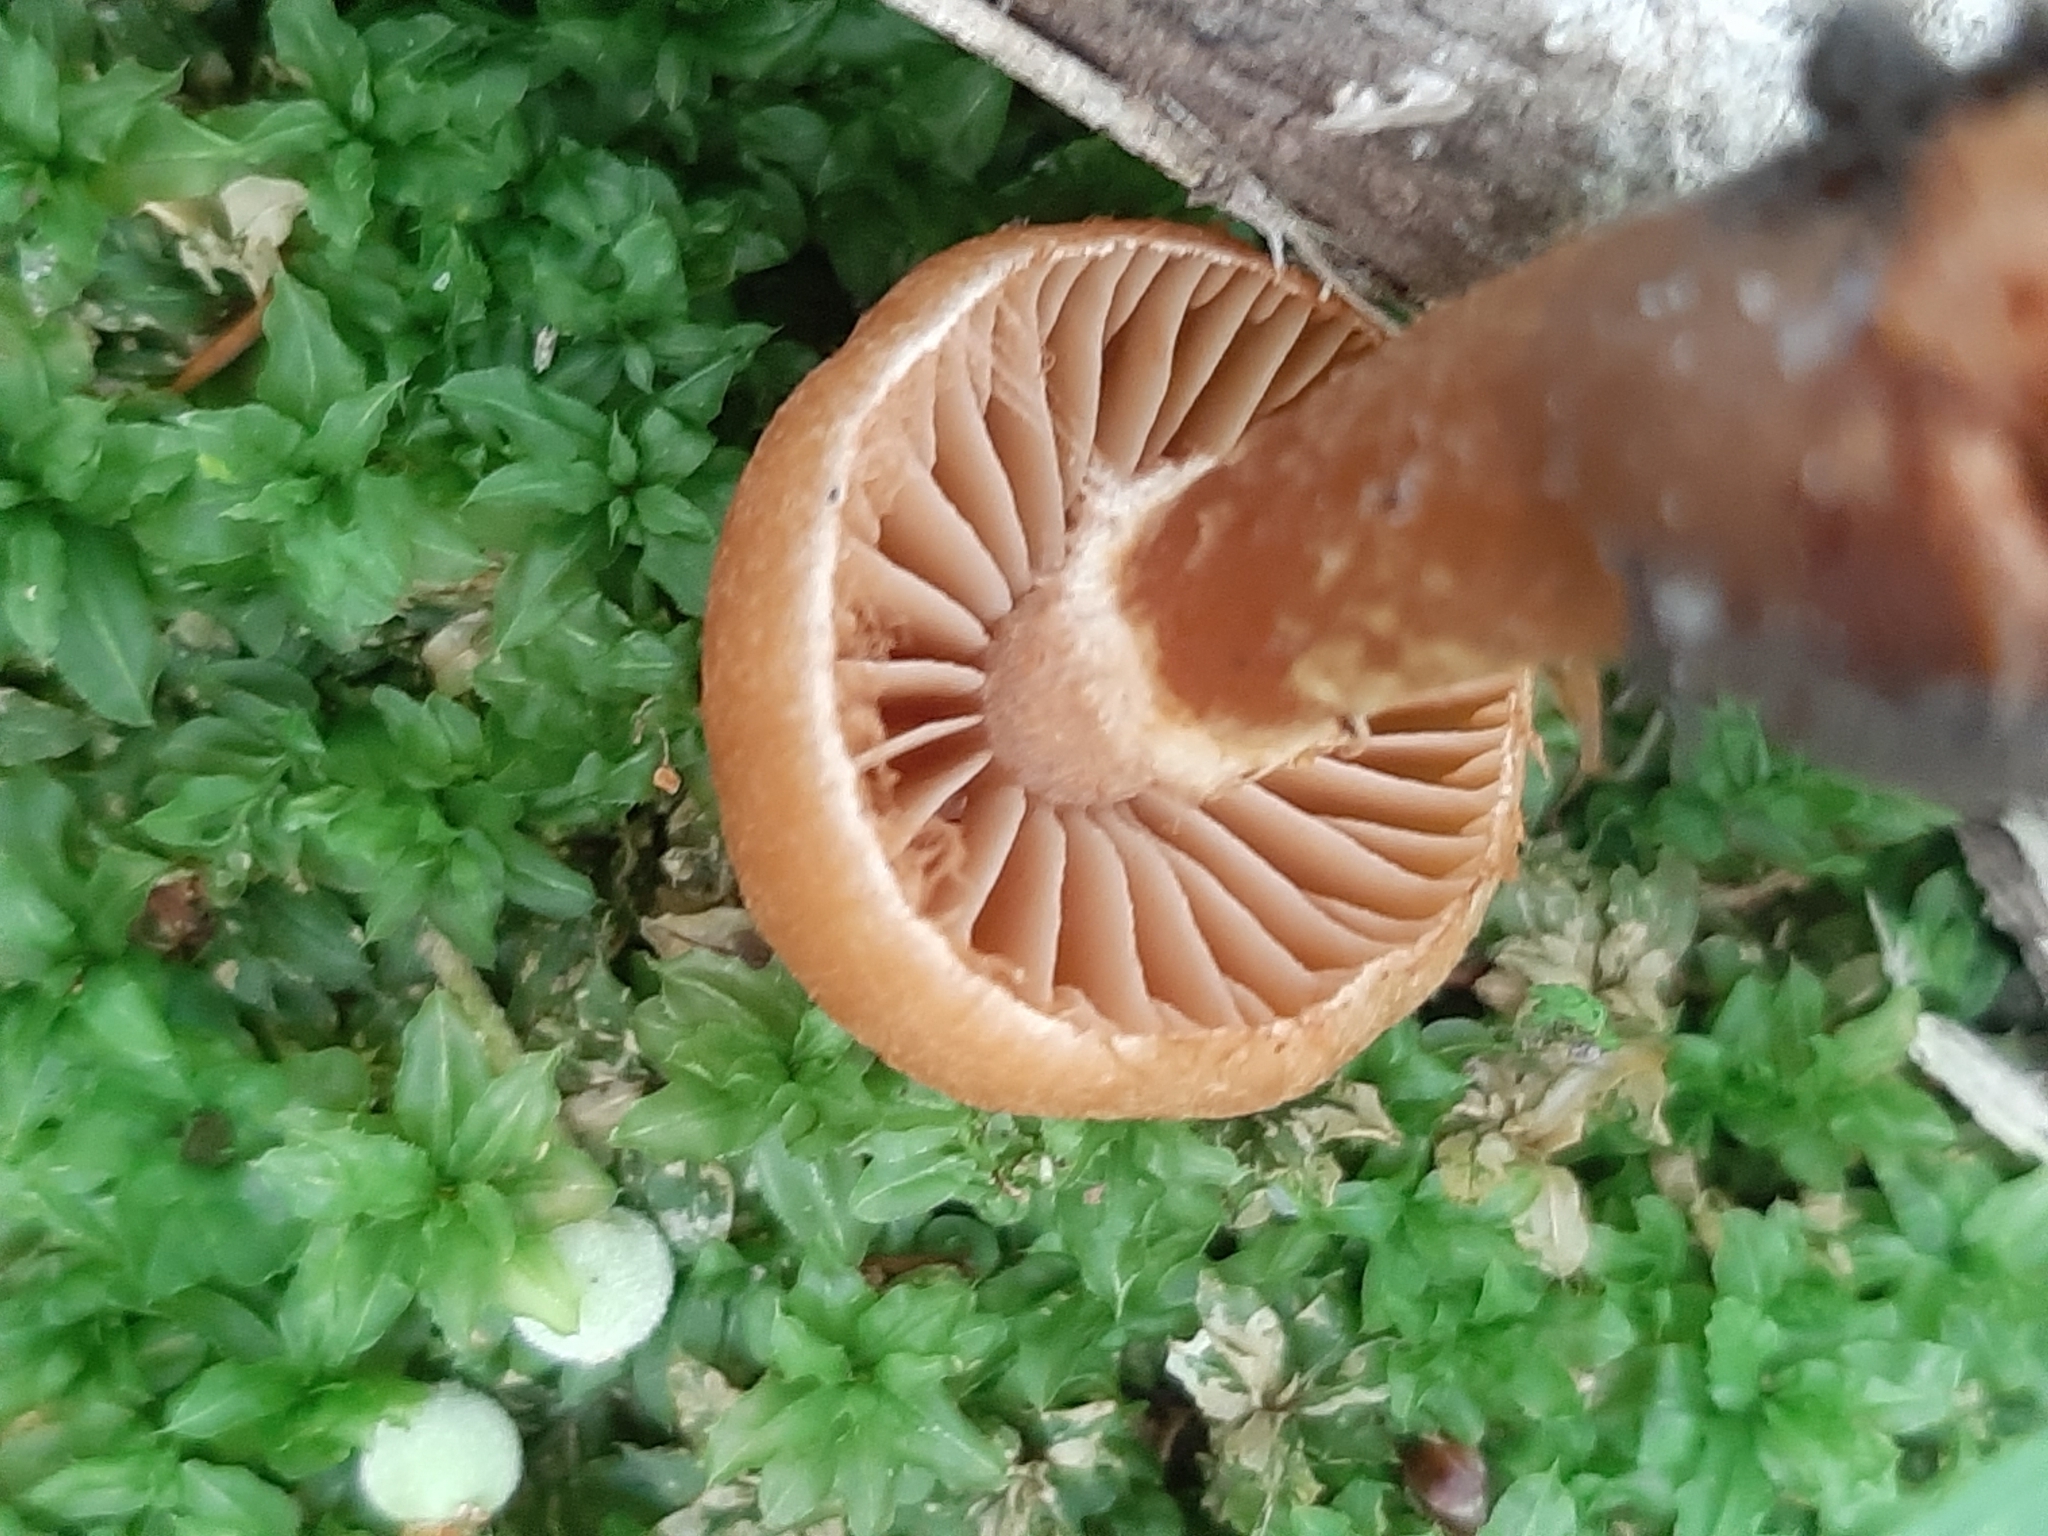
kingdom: Fungi
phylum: Basidiomycota
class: Agaricomycetes
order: Agaricales
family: Cortinariaceae
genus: Cortinarius
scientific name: Cortinarius
